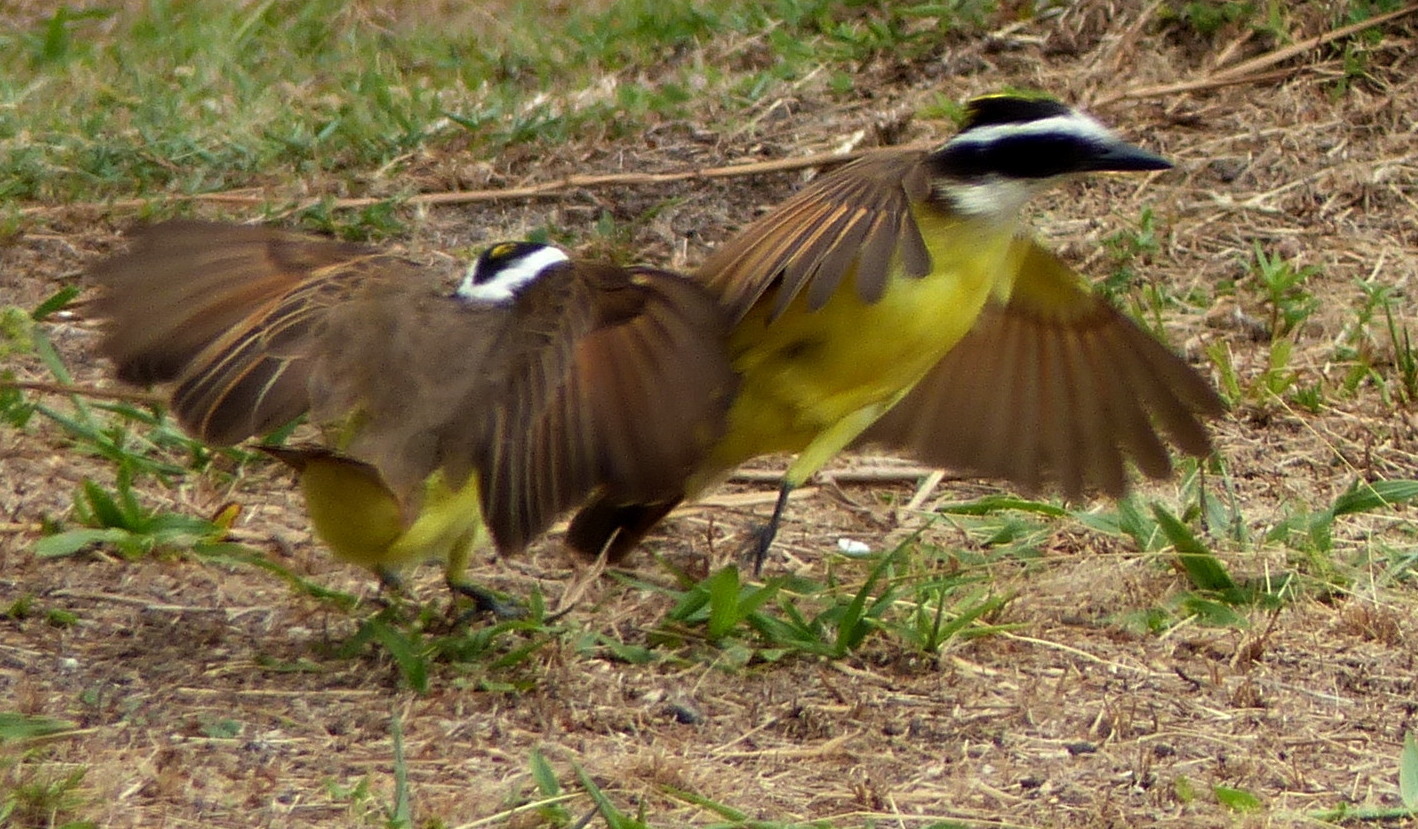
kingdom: Animalia
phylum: Chordata
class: Aves
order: Passeriformes
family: Tyrannidae
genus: Pitangus
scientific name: Pitangus sulphuratus
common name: Great kiskadee
